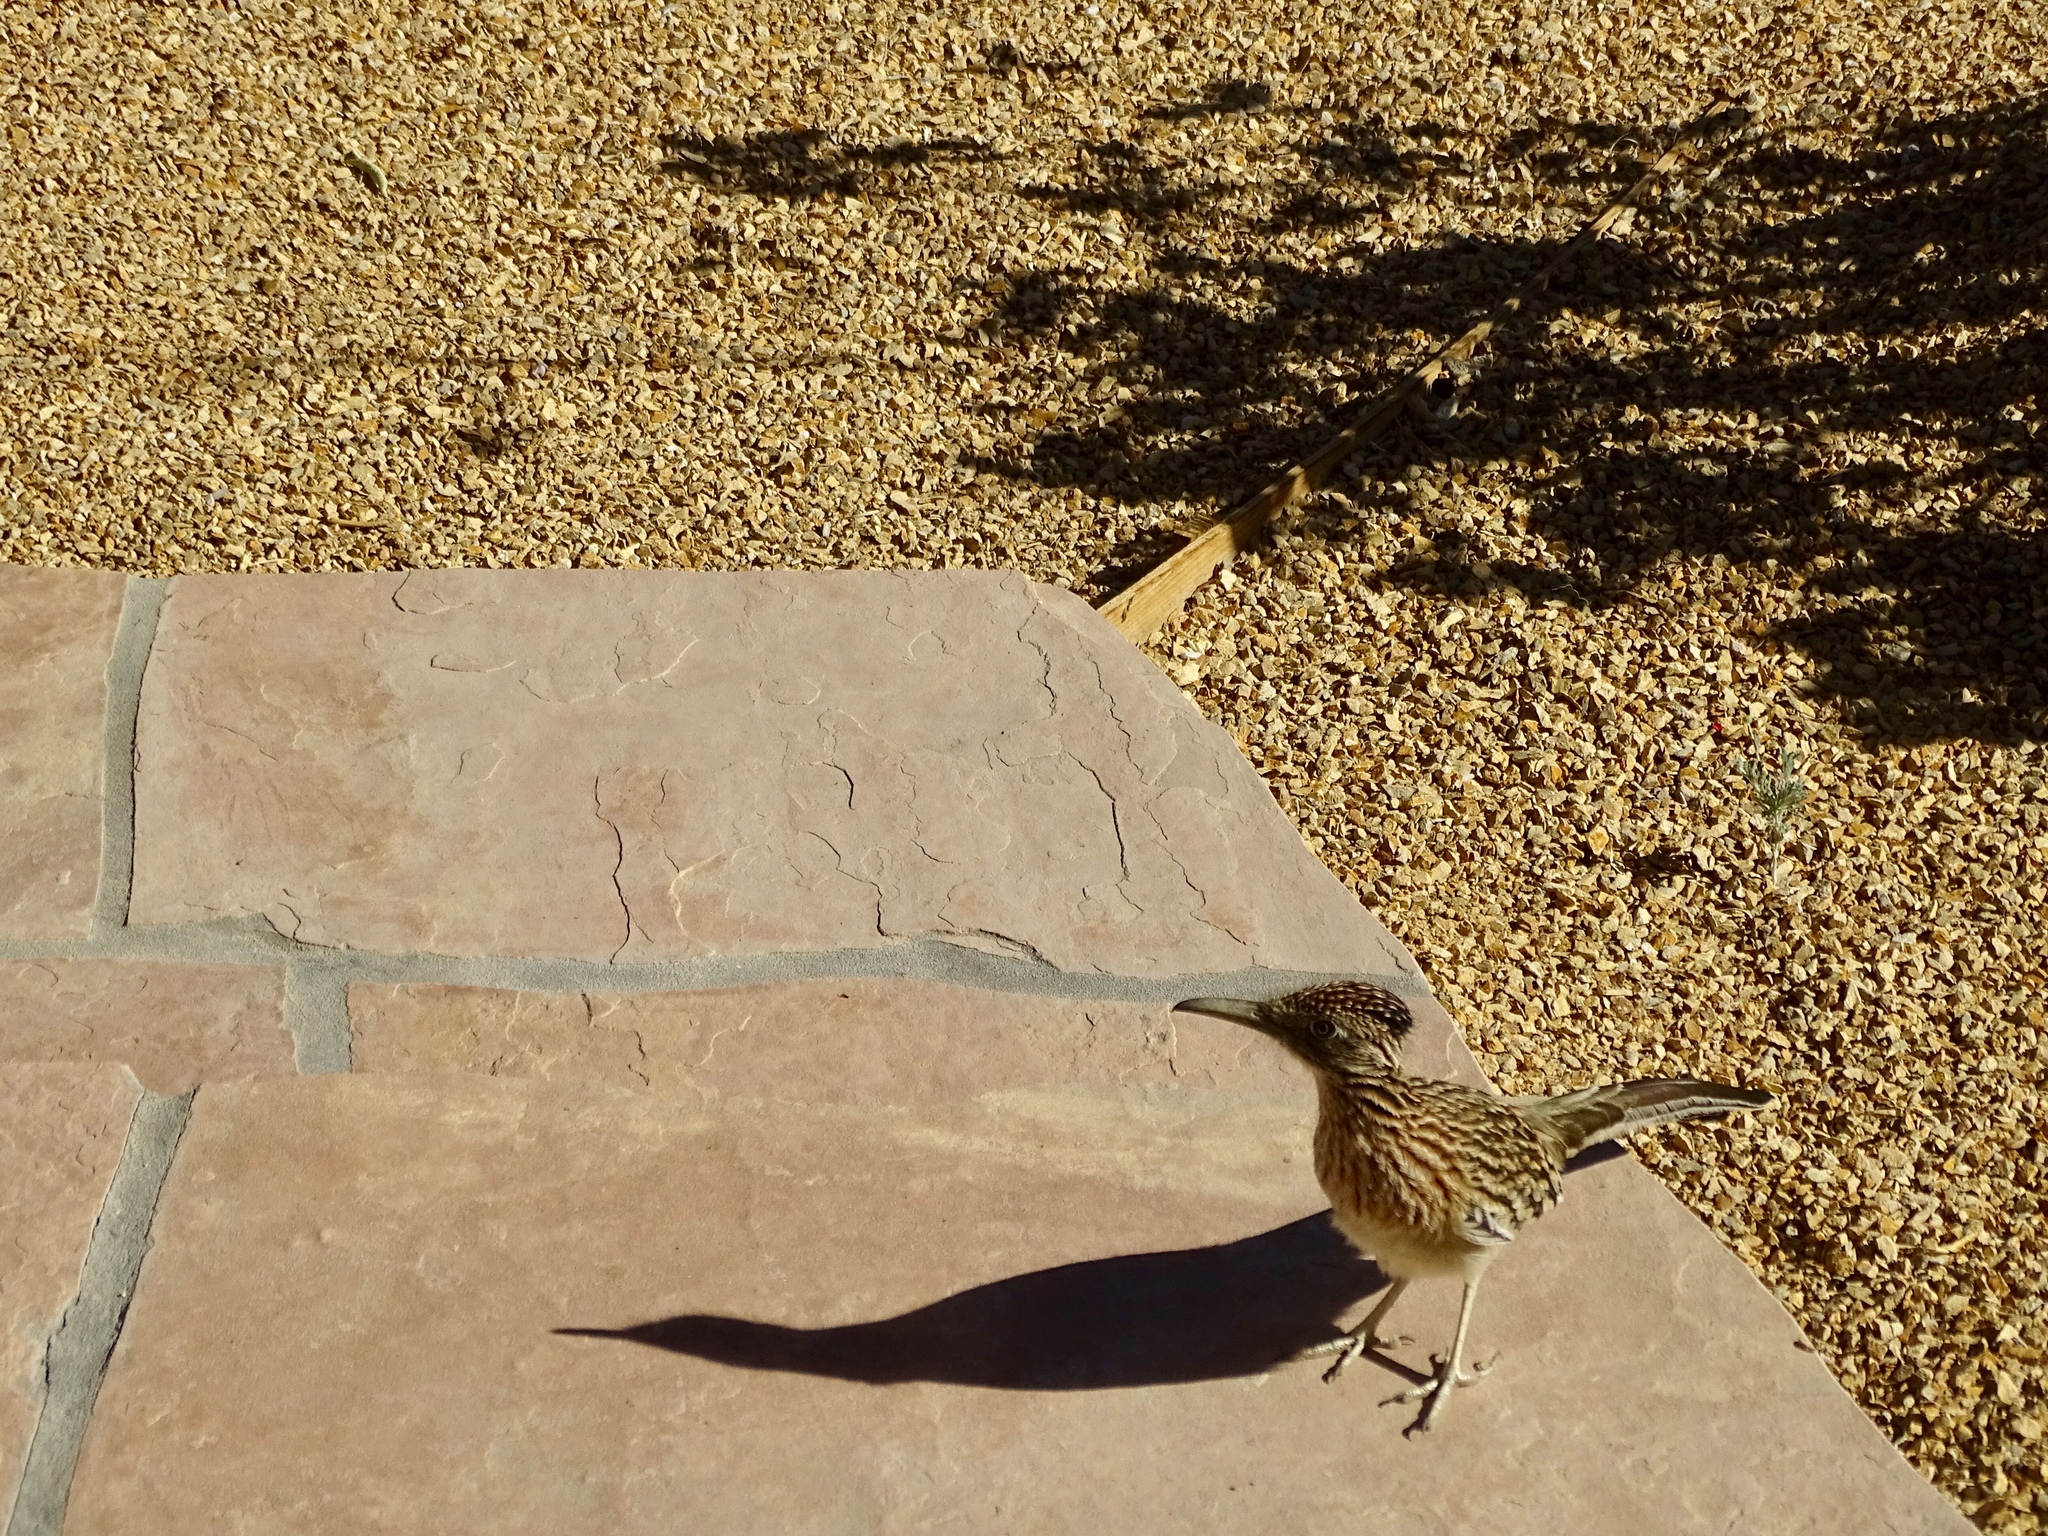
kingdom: Animalia
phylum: Chordata
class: Aves
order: Cuculiformes
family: Cuculidae
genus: Geococcyx
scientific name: Geococcyx californianus
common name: Greater roadrunner
